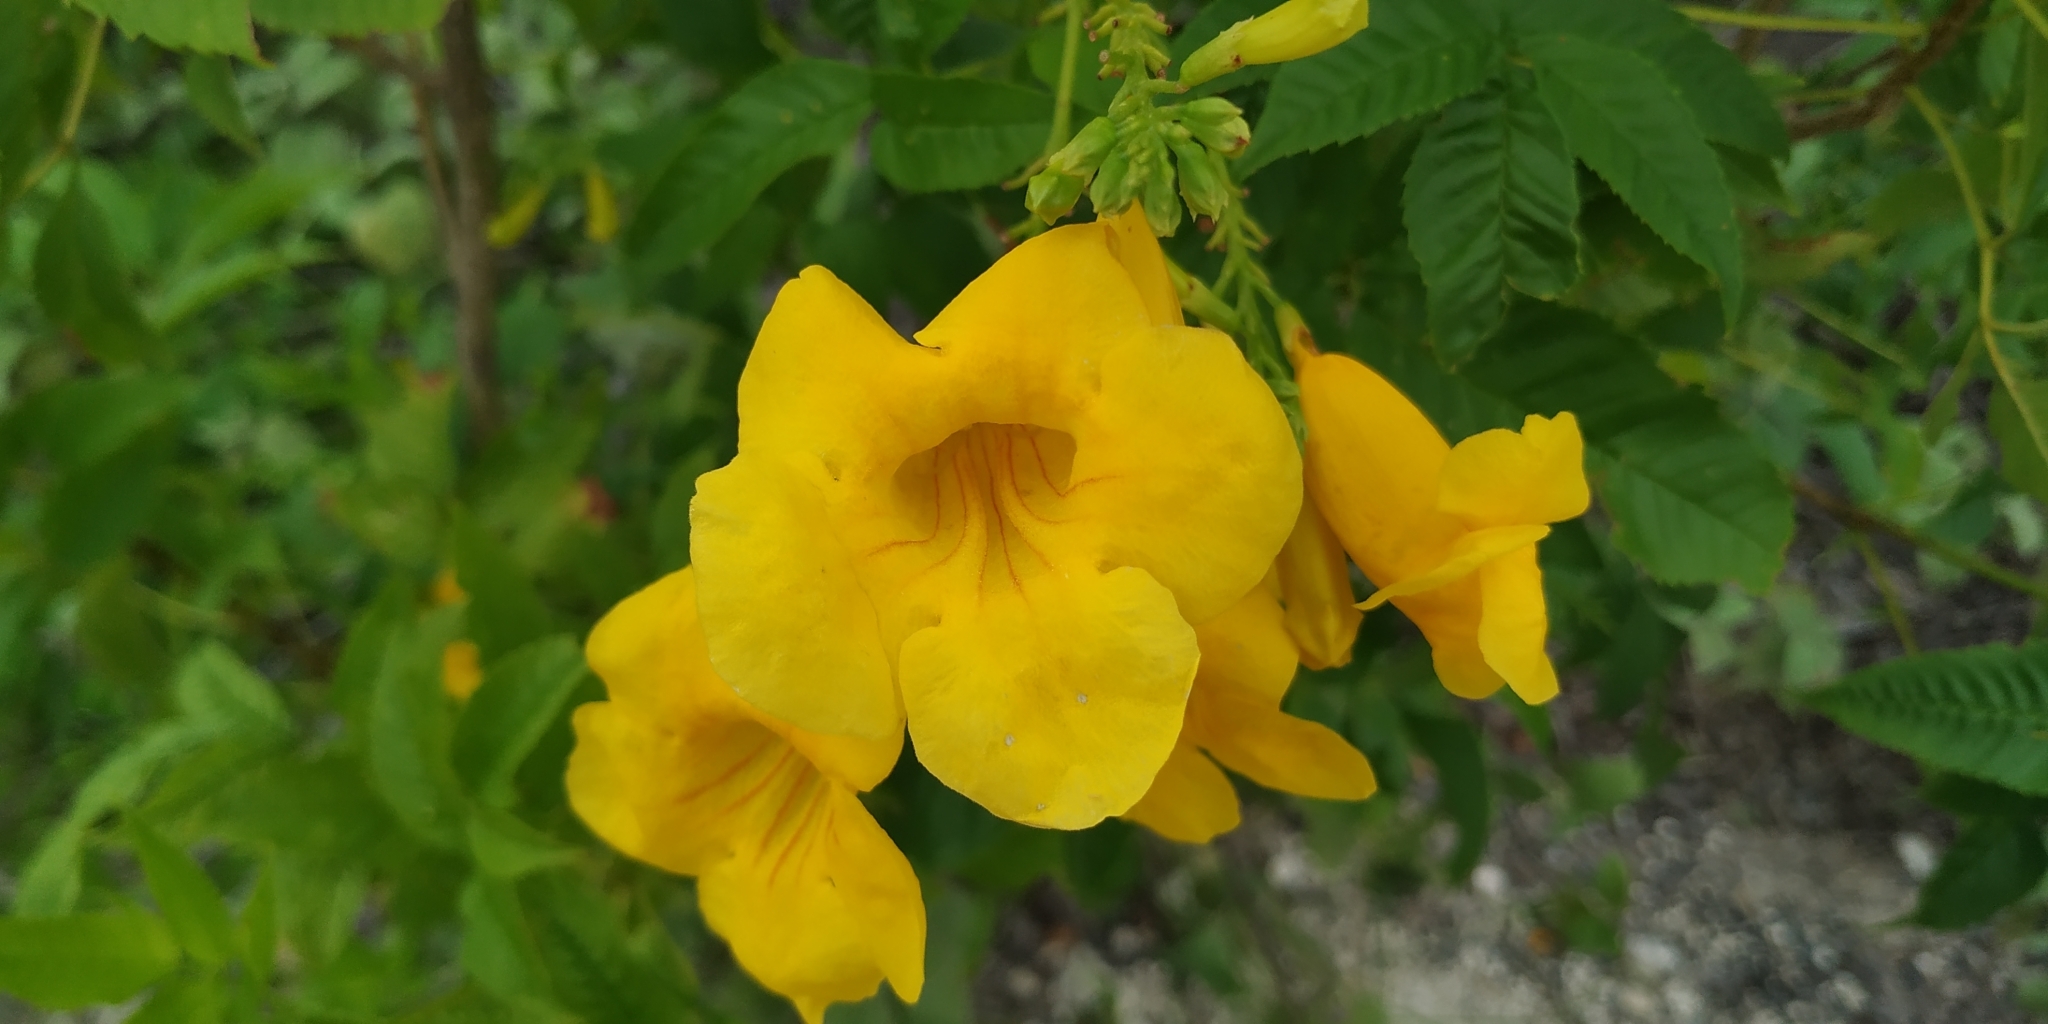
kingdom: Plantae
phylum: Tracheophyta
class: Magnoliopsida
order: Lamiales
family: Bignoniaceae
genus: Tecoma
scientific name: Tecoma stans
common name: Yellow trumpetbush
